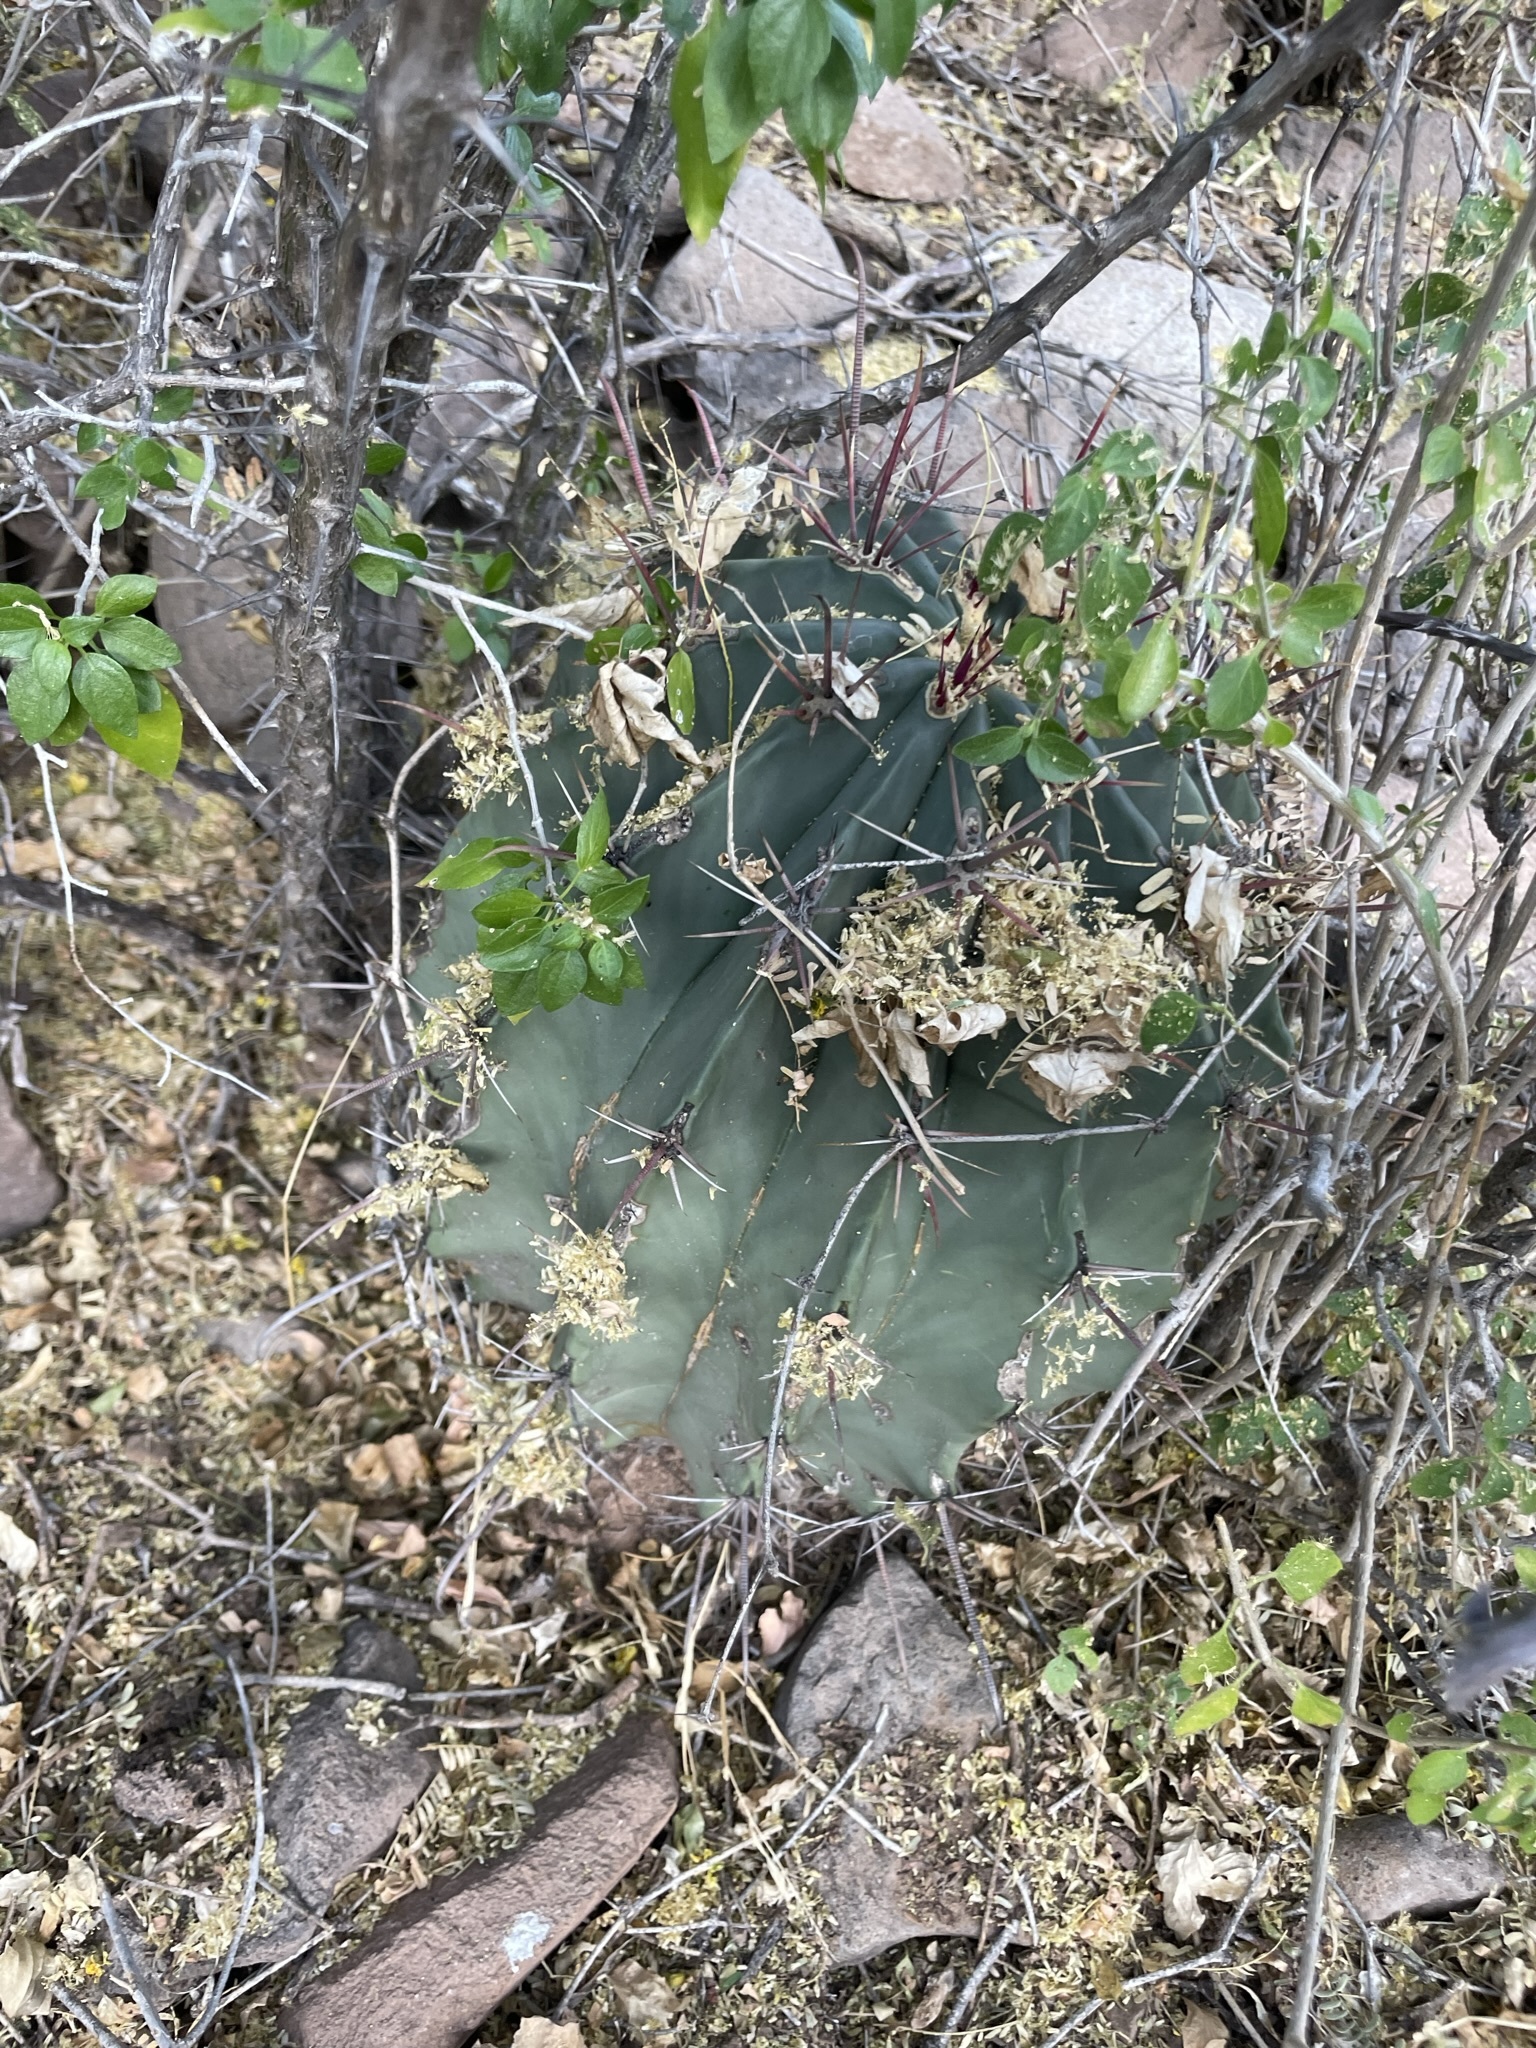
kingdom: Plantae
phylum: Tracheophyta
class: Magnoliopsida
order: Caryophyllales
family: Cactaceae
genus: Ferocactus
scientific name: Ferocactus townsendianus
